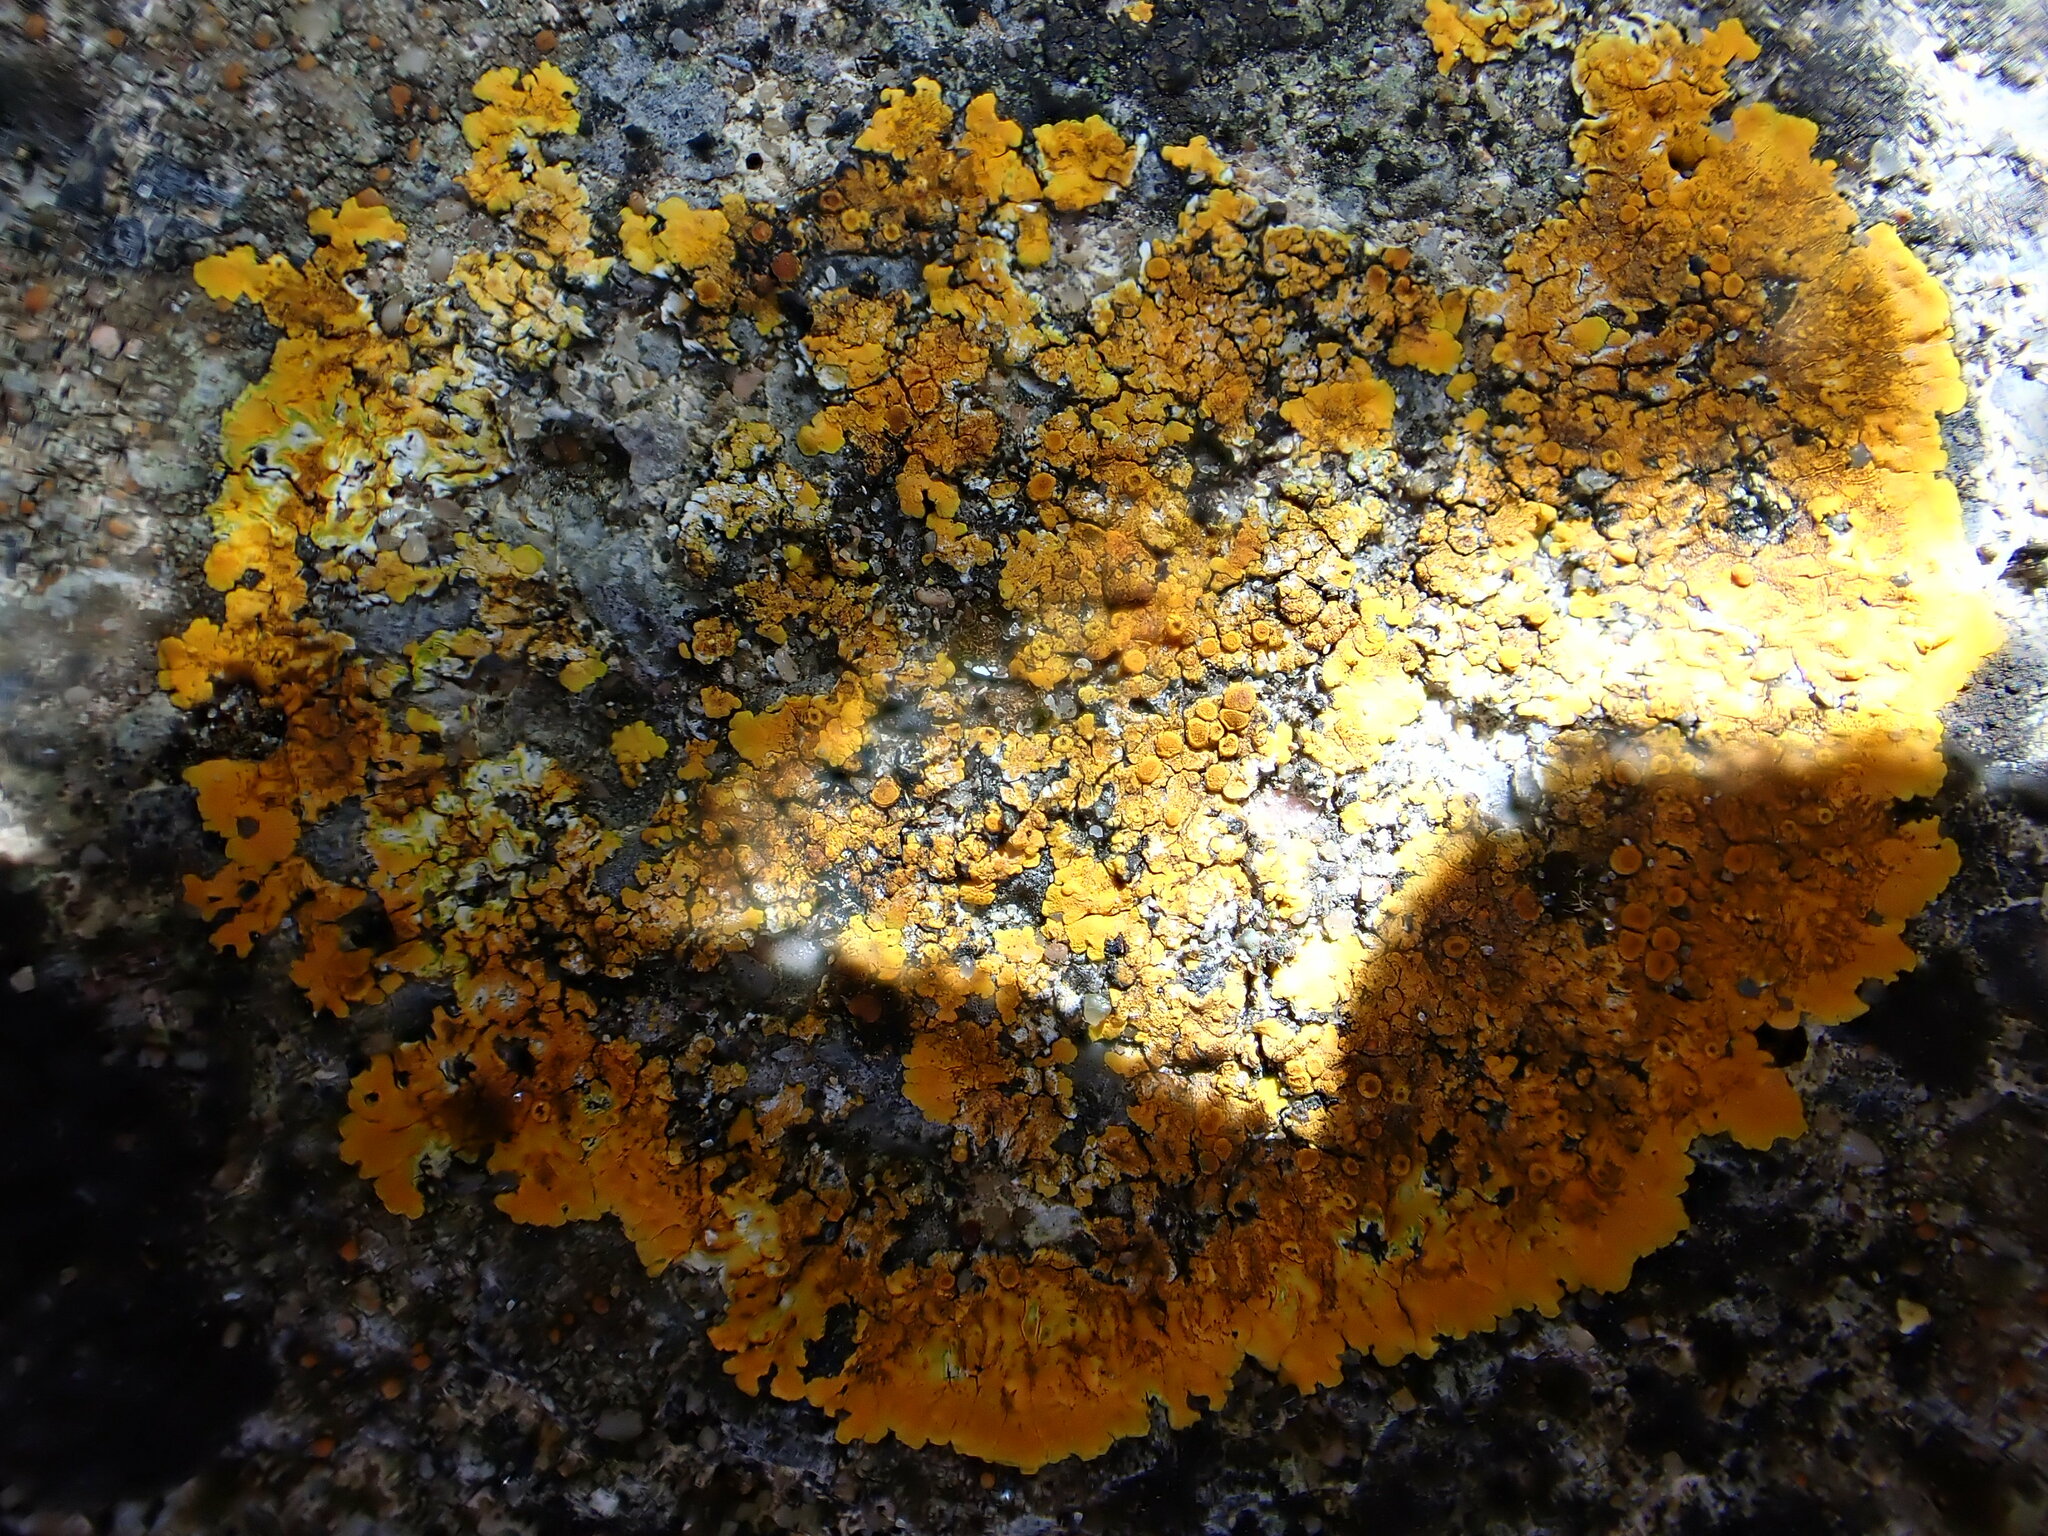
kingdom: Fungi
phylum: Ascomycota
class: Lecanoromycetes
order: Teloschistales
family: Teloschistaceae
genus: Variospora
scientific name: Variospora aurantia
